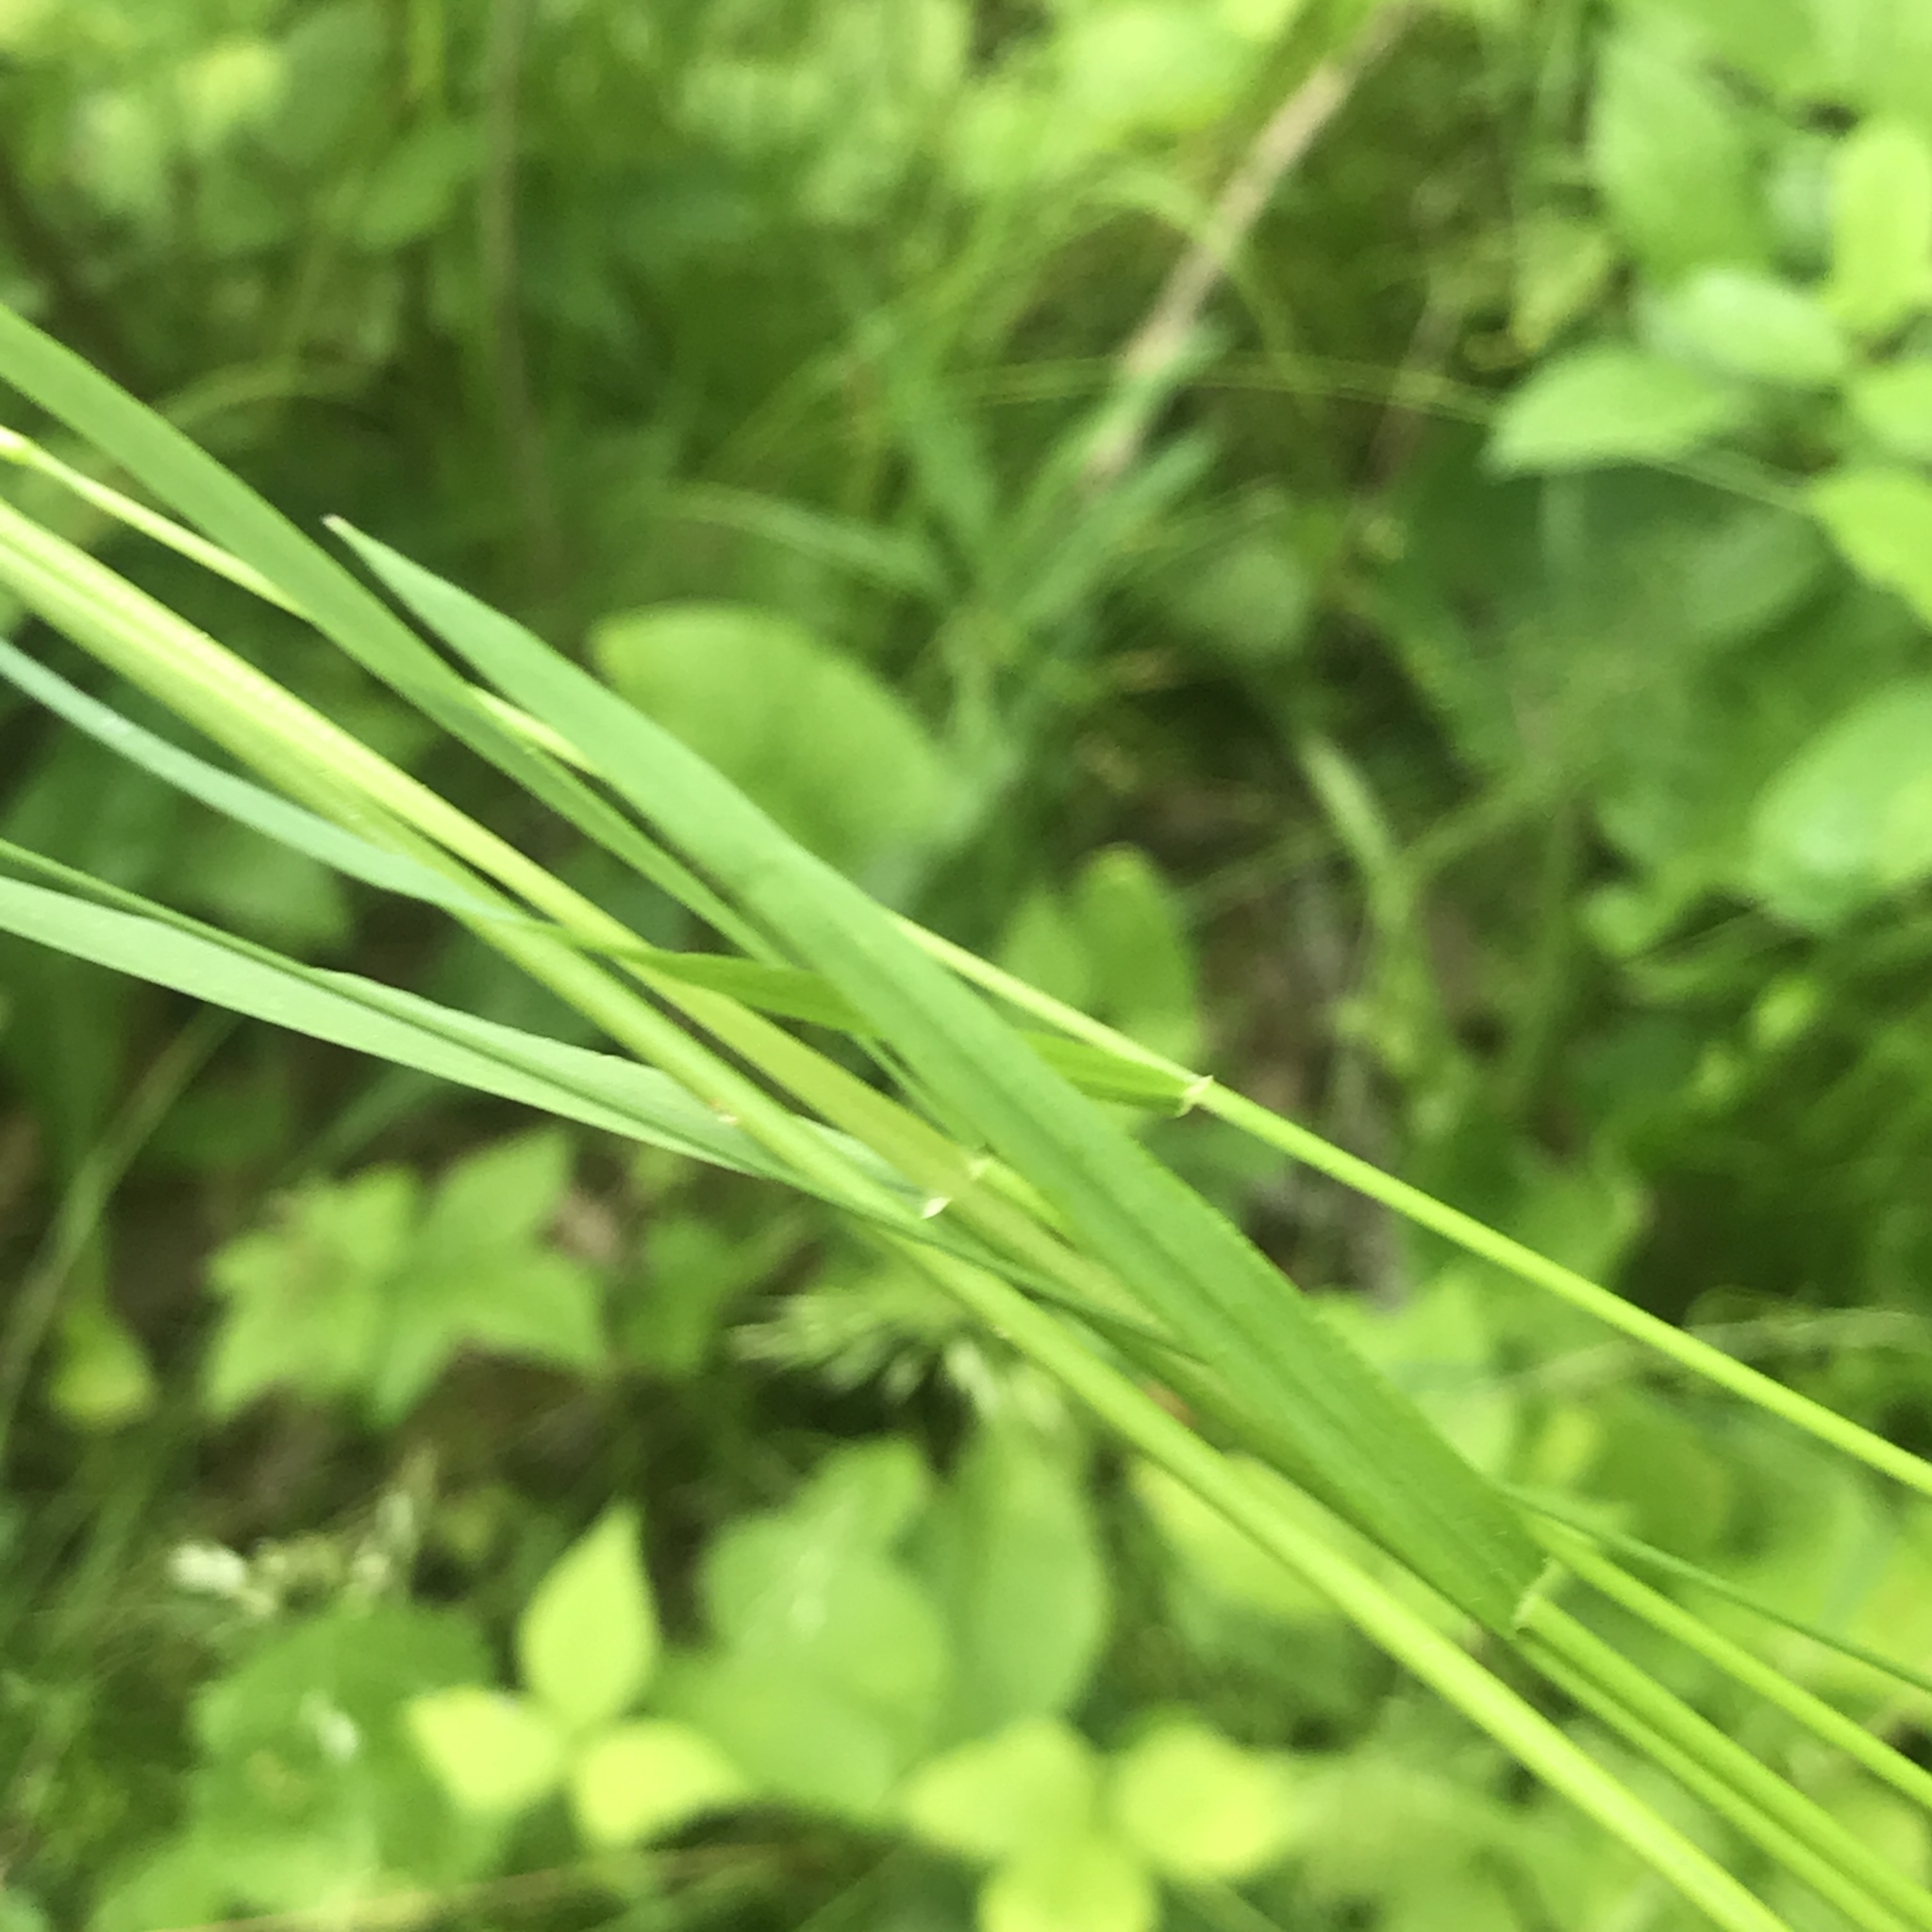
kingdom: Plantae
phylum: Tracheophyta
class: Liliopsida
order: Poales
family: Poaceae
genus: Sphenopholis
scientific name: Sphenopholis pensylvanica
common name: Swamp oats
